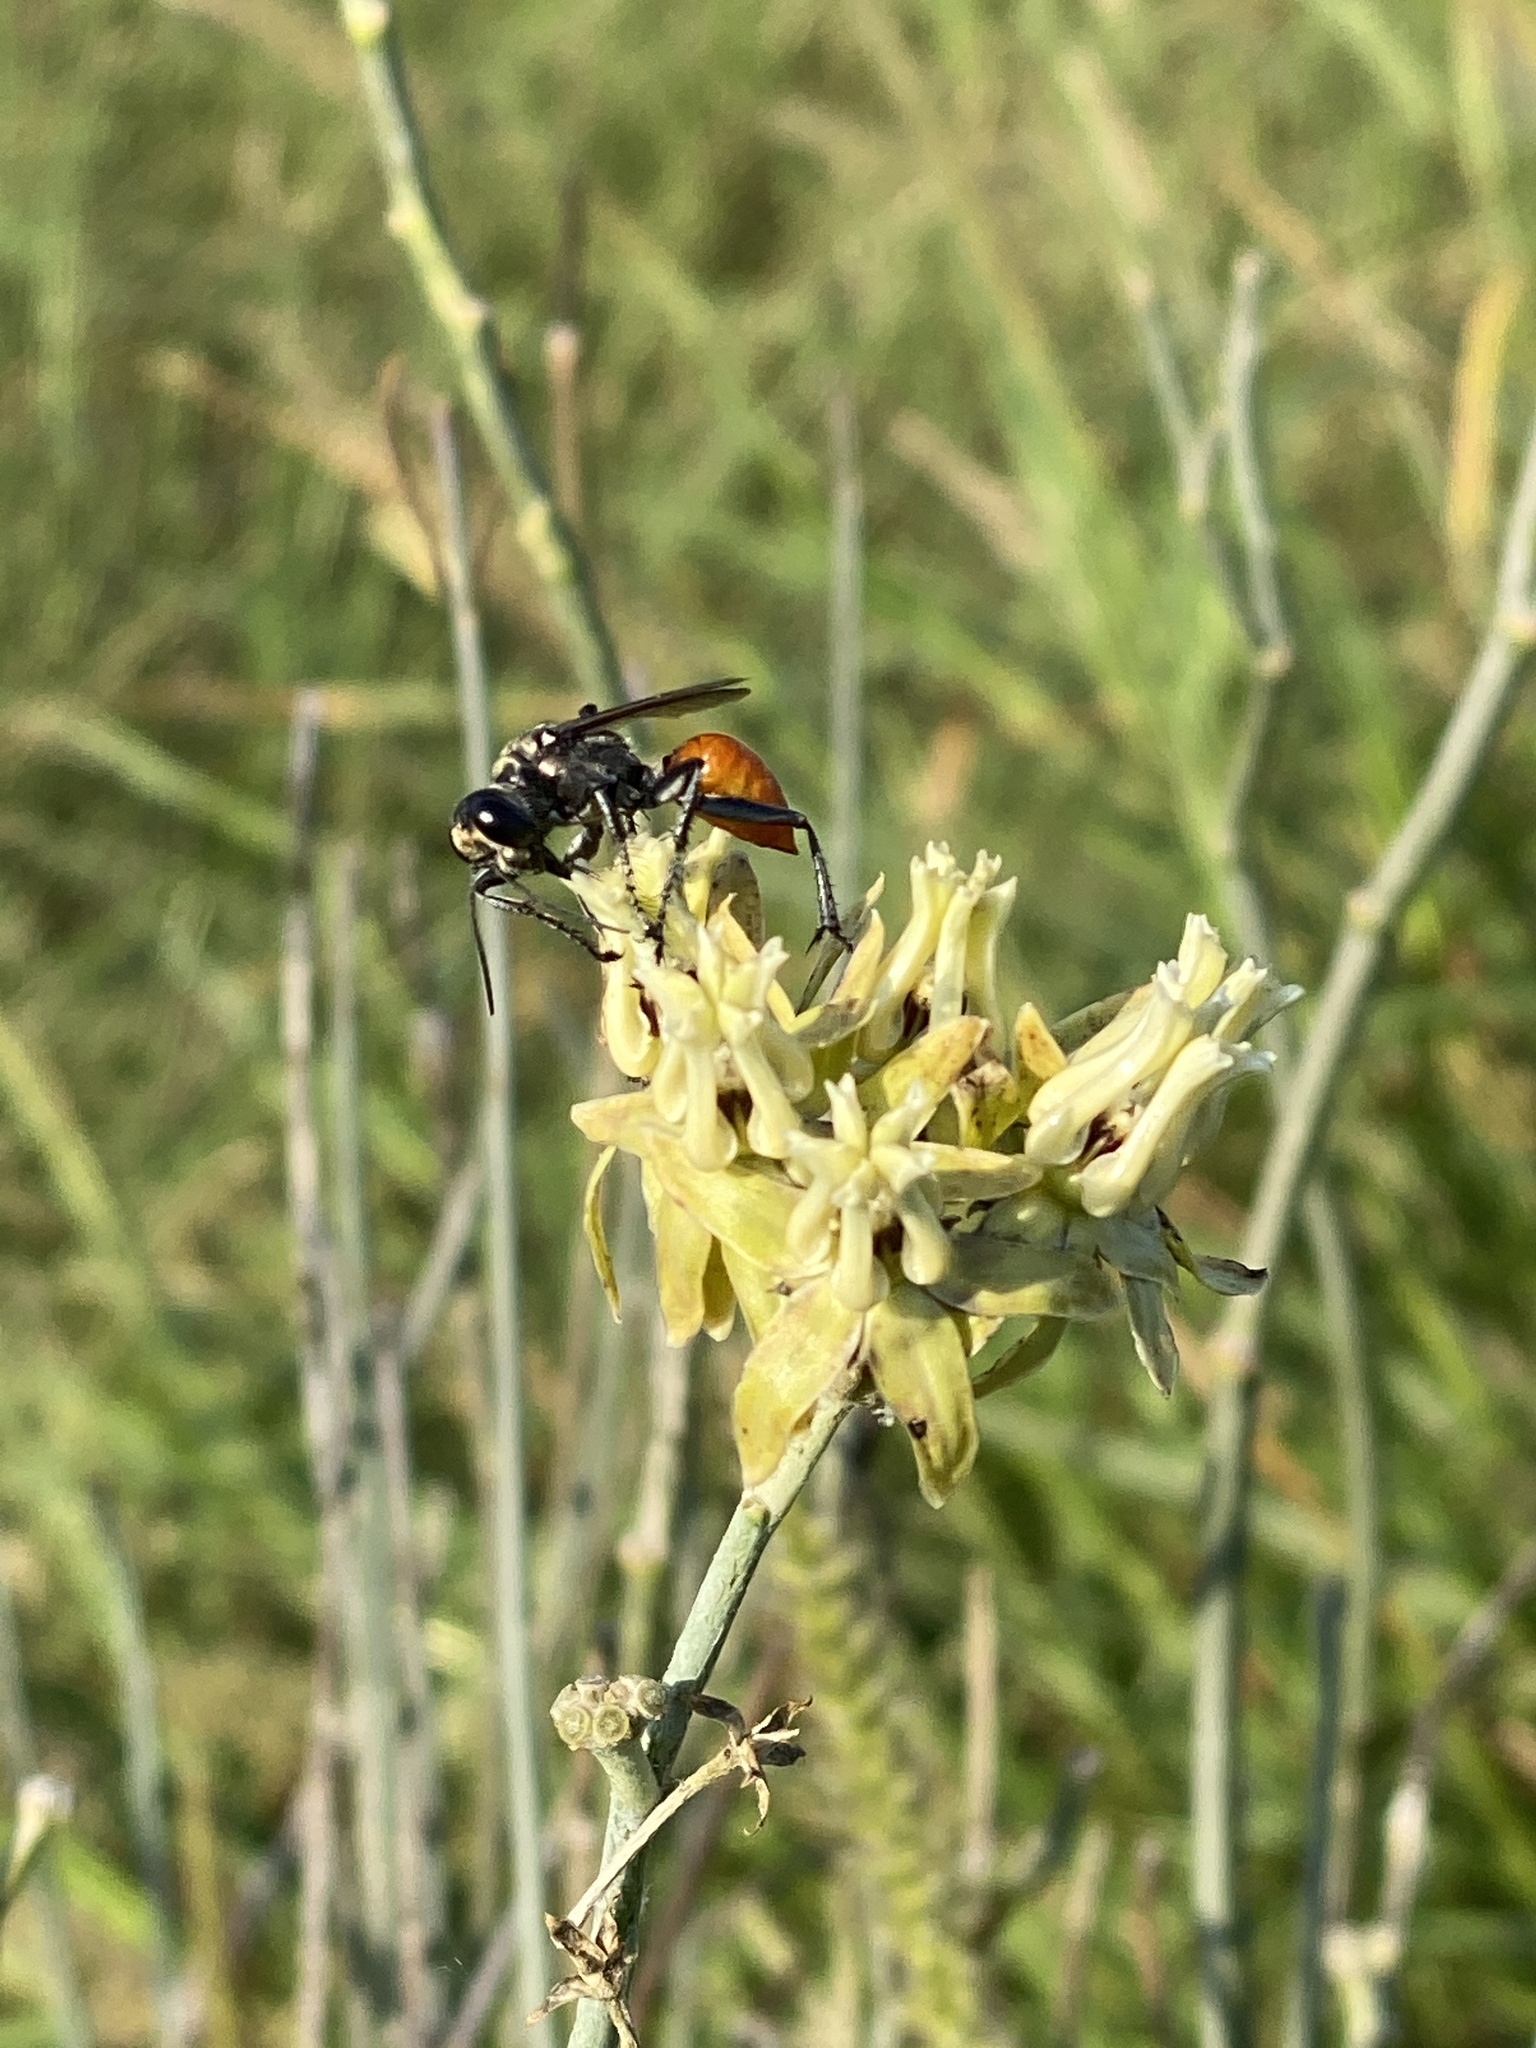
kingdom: Plantae
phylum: Tracheophyta
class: Magnoliopsida
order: Gentianales
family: Apocynaceae
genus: Asclepias
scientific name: Asclepias subulata
